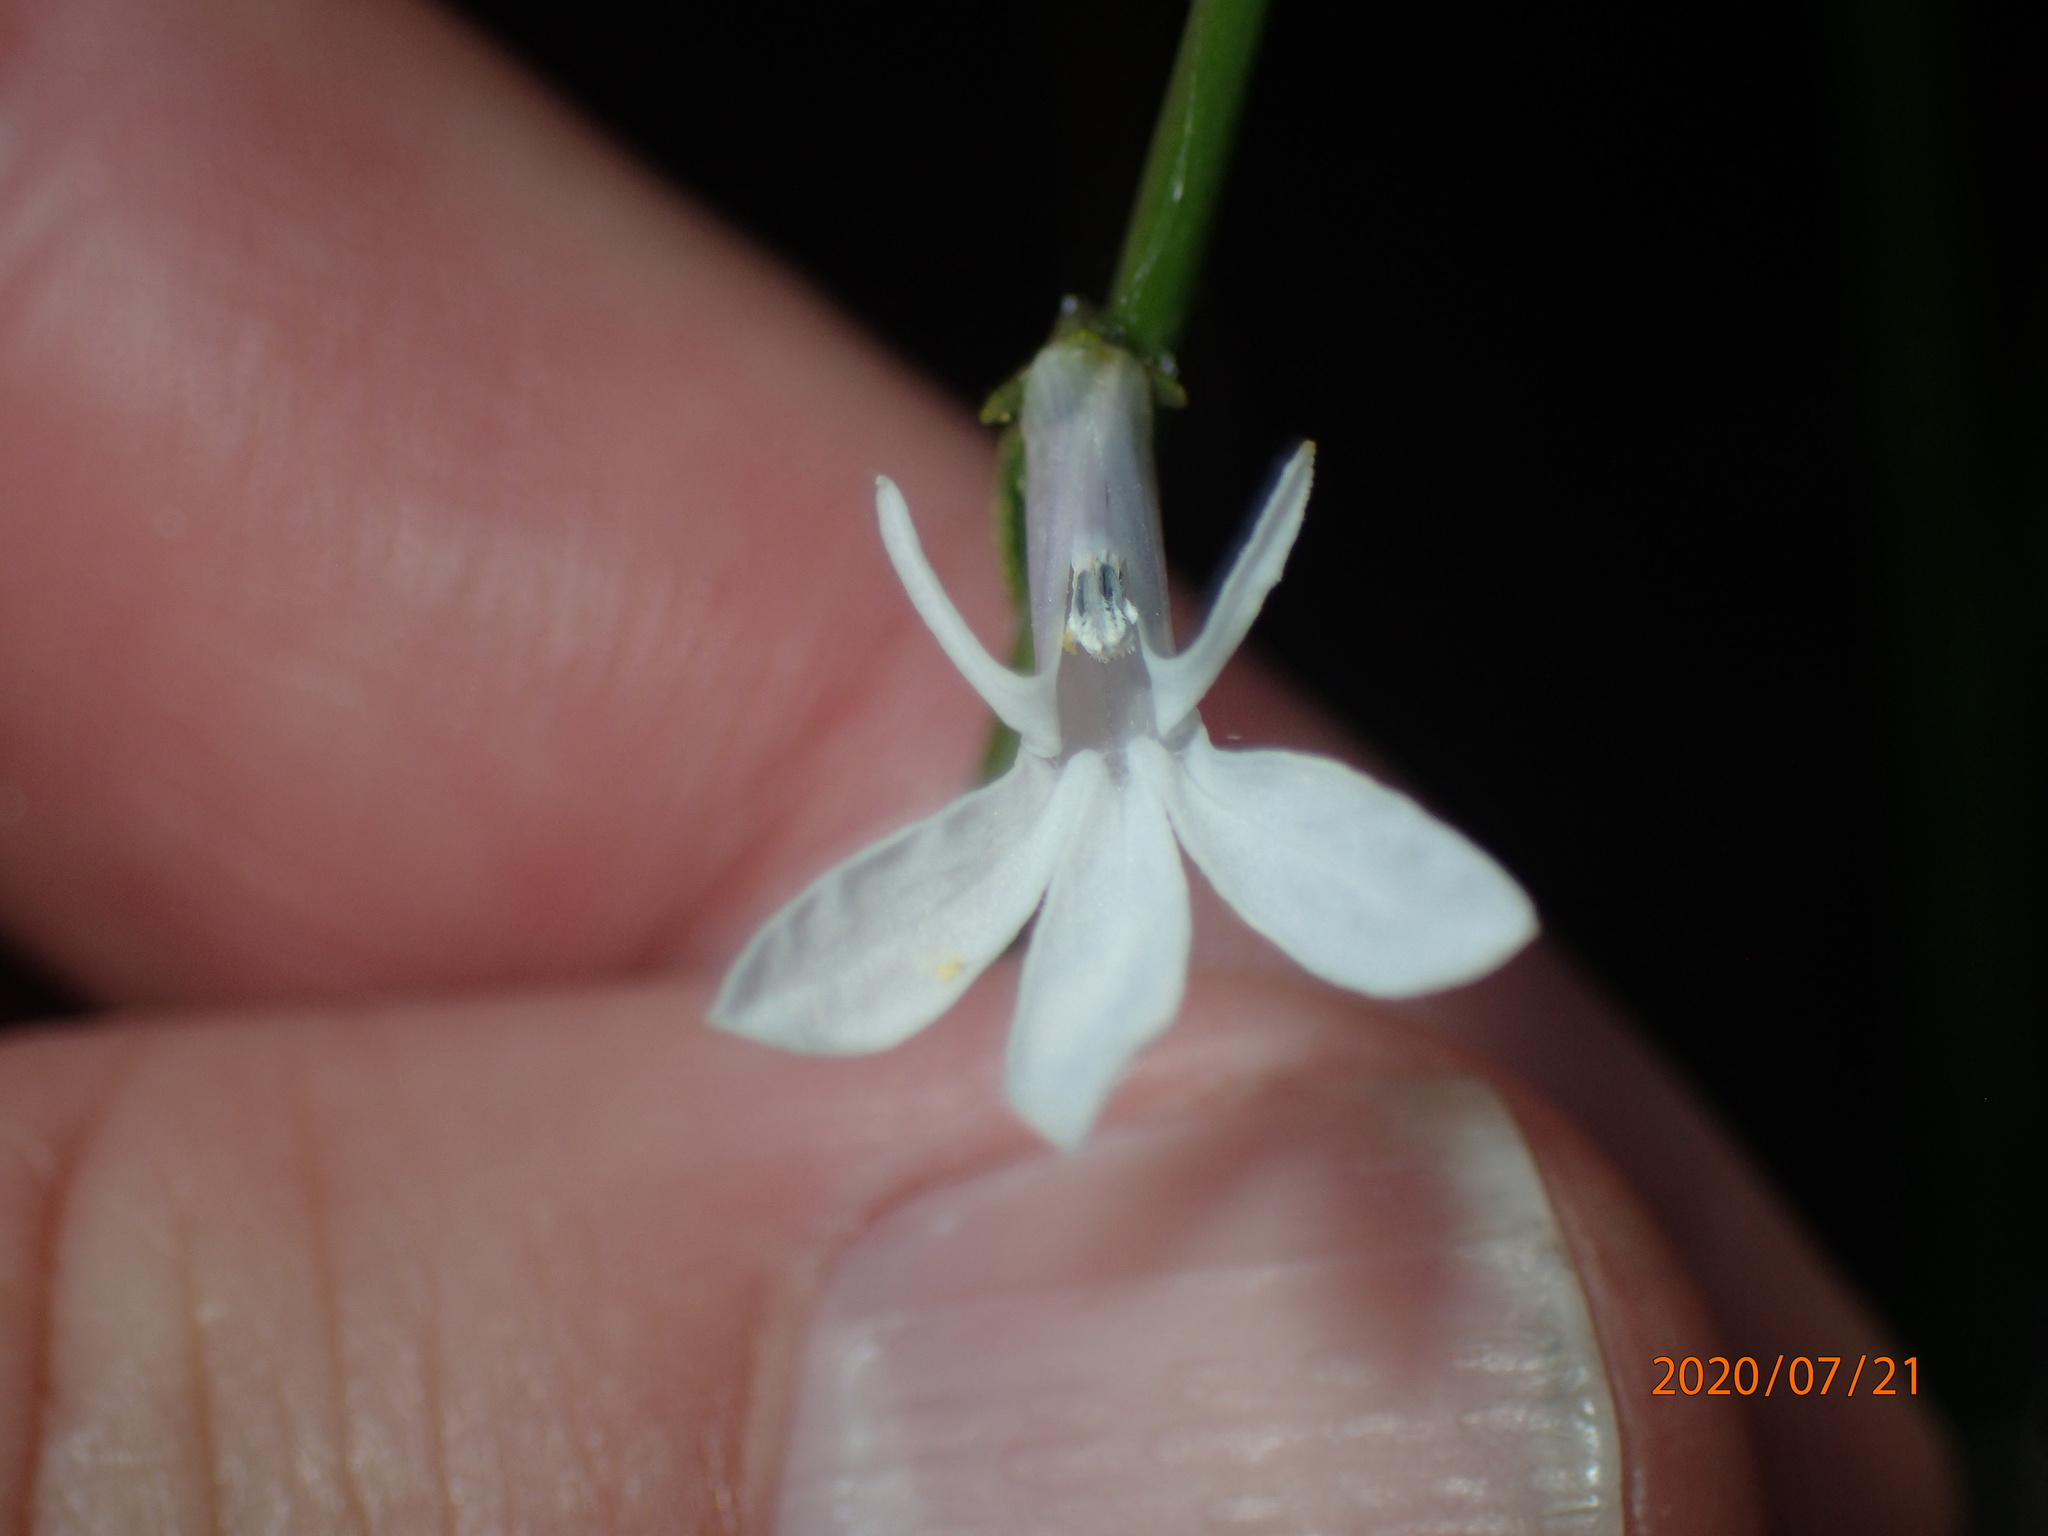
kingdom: Plantae
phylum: Tracheophyta
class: Magnoliopsida
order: Asterales
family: Campanulaceae
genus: Lobelia
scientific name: Lobelia dortmanna
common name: Water lobelia
